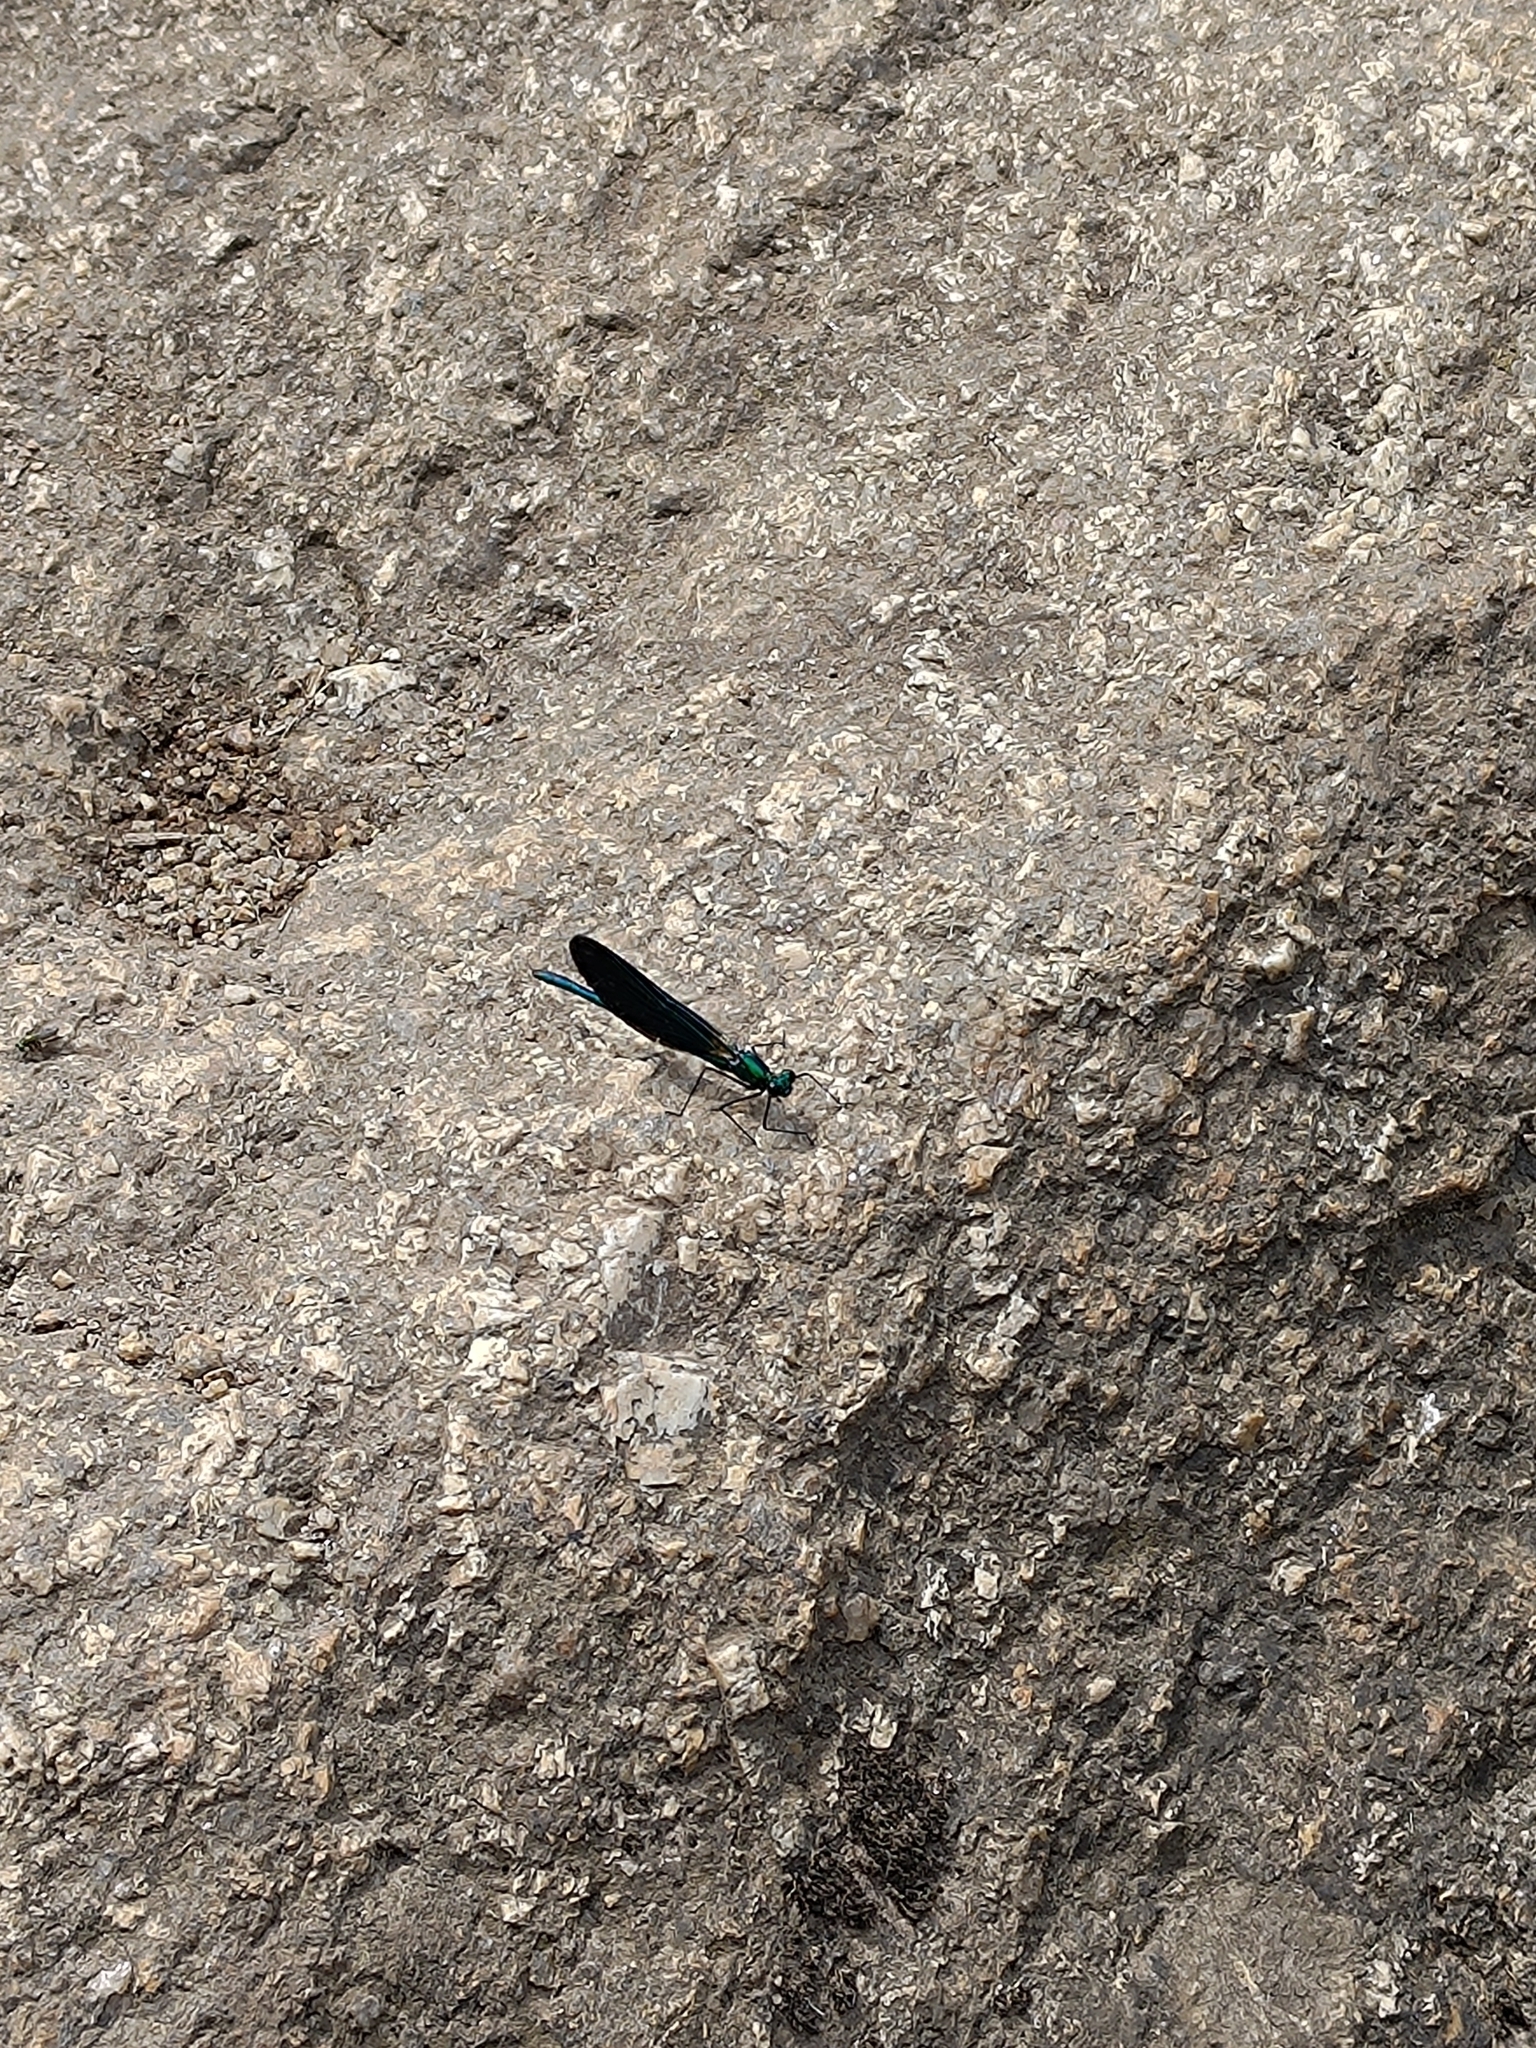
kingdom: Animalia
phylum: Arthropoda
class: Insecta
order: Odonata
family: Calopterygidae
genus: Calopteryx
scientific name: Calopteryx virgo
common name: Beautiful demoiselle
